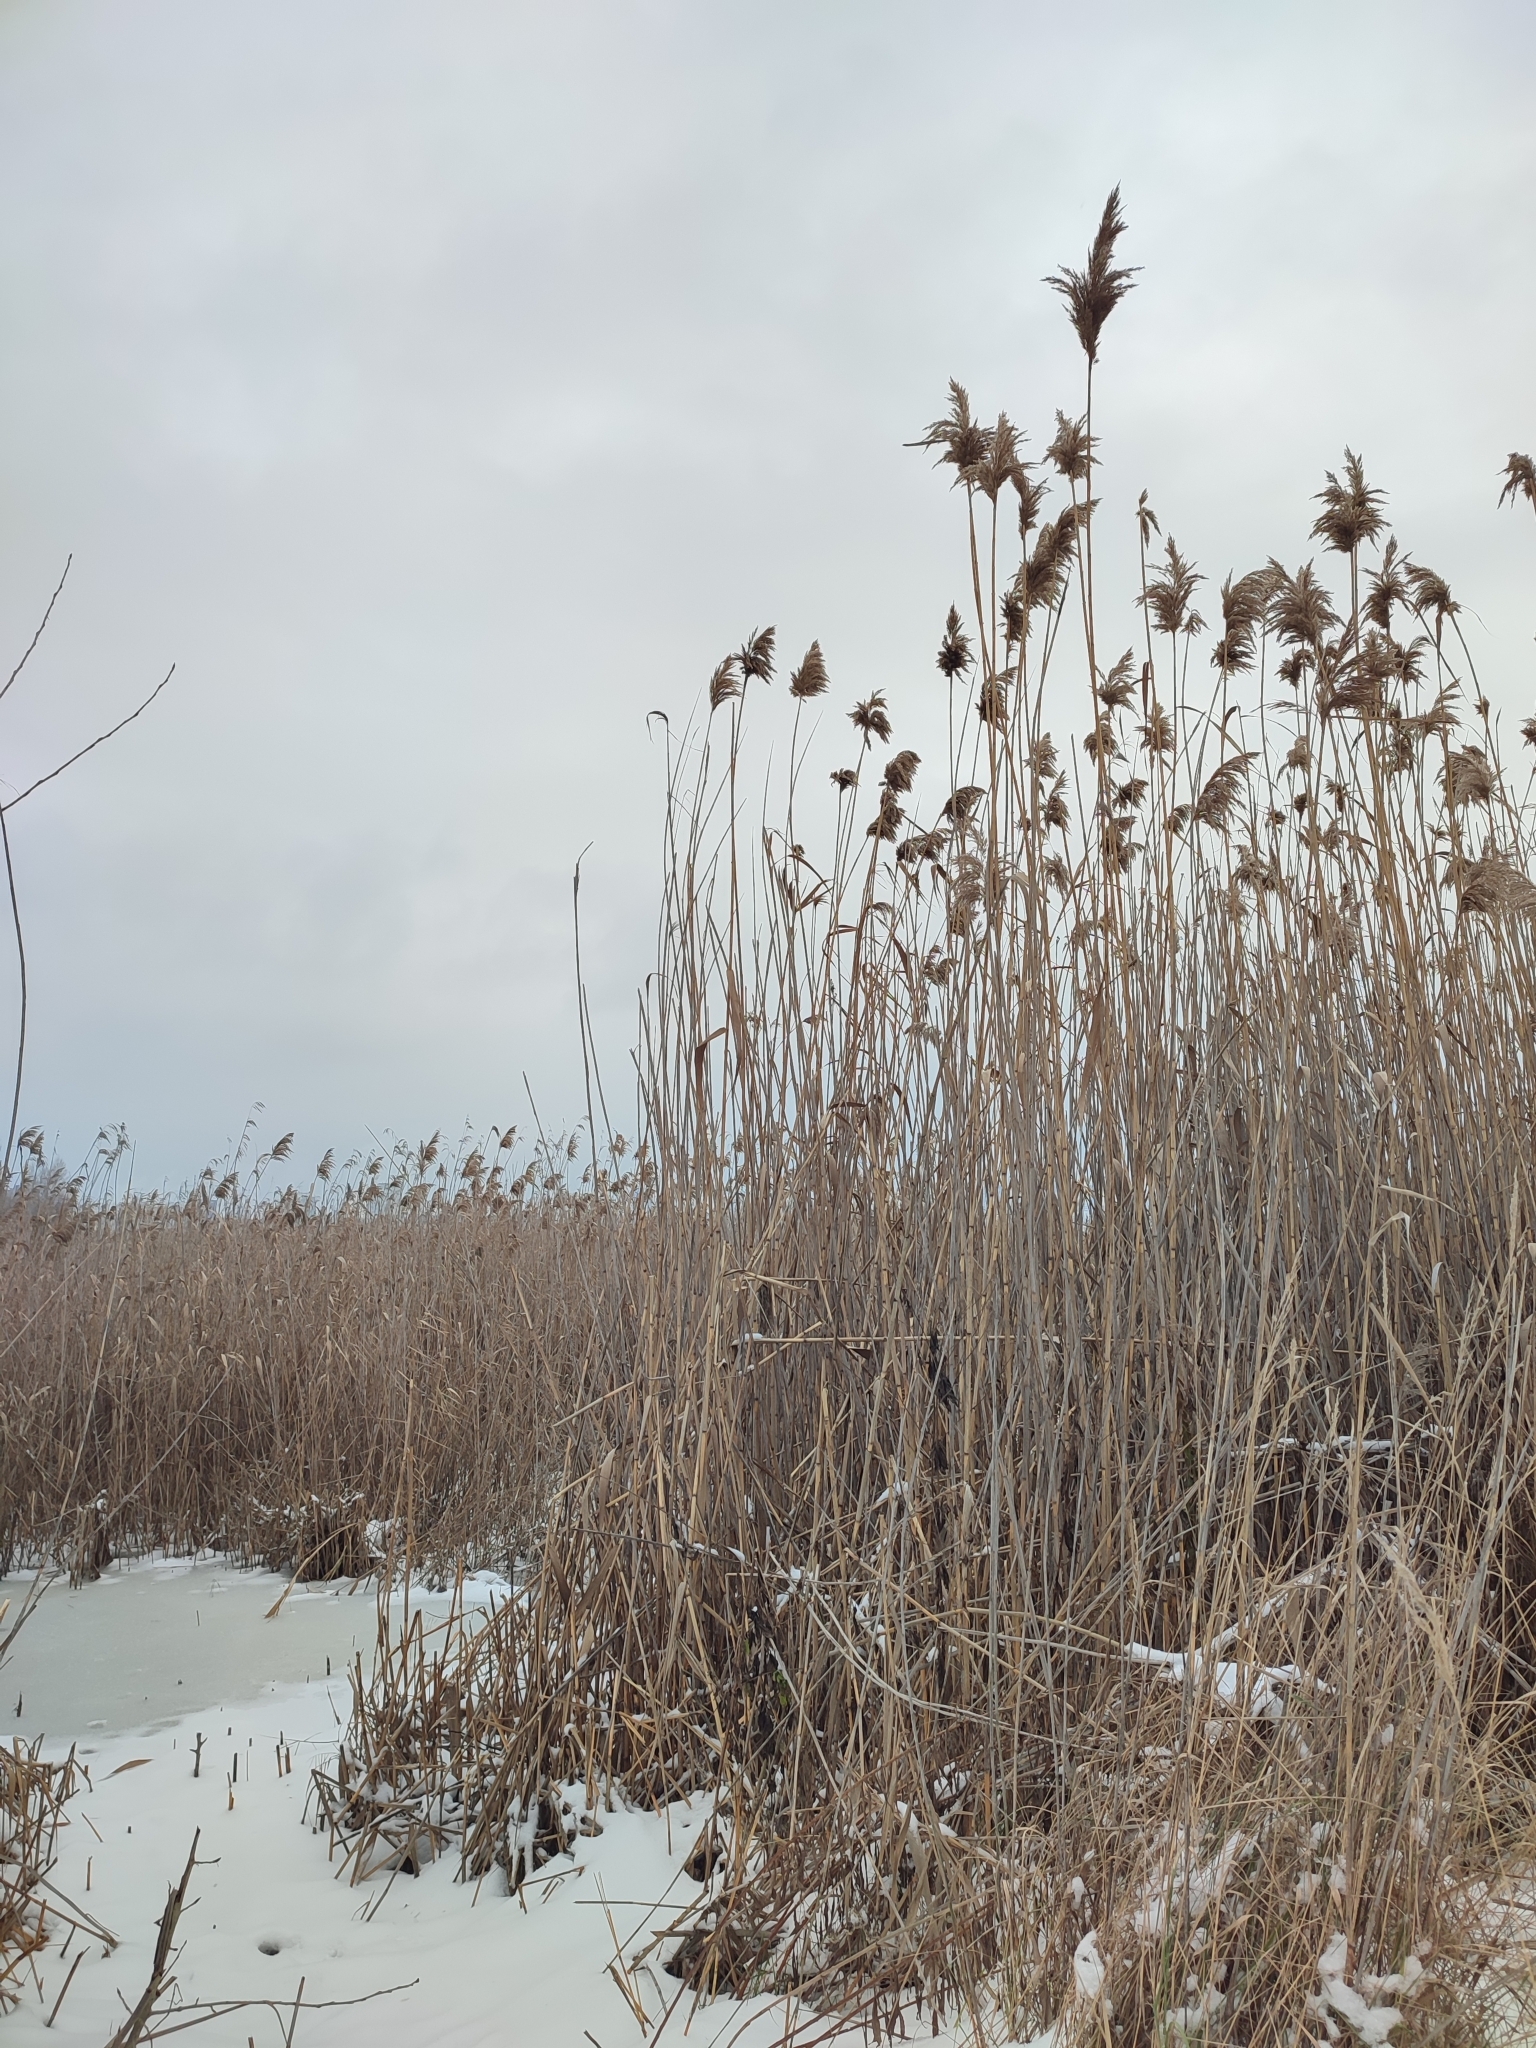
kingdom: Plantae
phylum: Tracheophyta
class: Liliopsida
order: Poales
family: Poaceae
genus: Phragmites
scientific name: Phragmites australis
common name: Common reed
